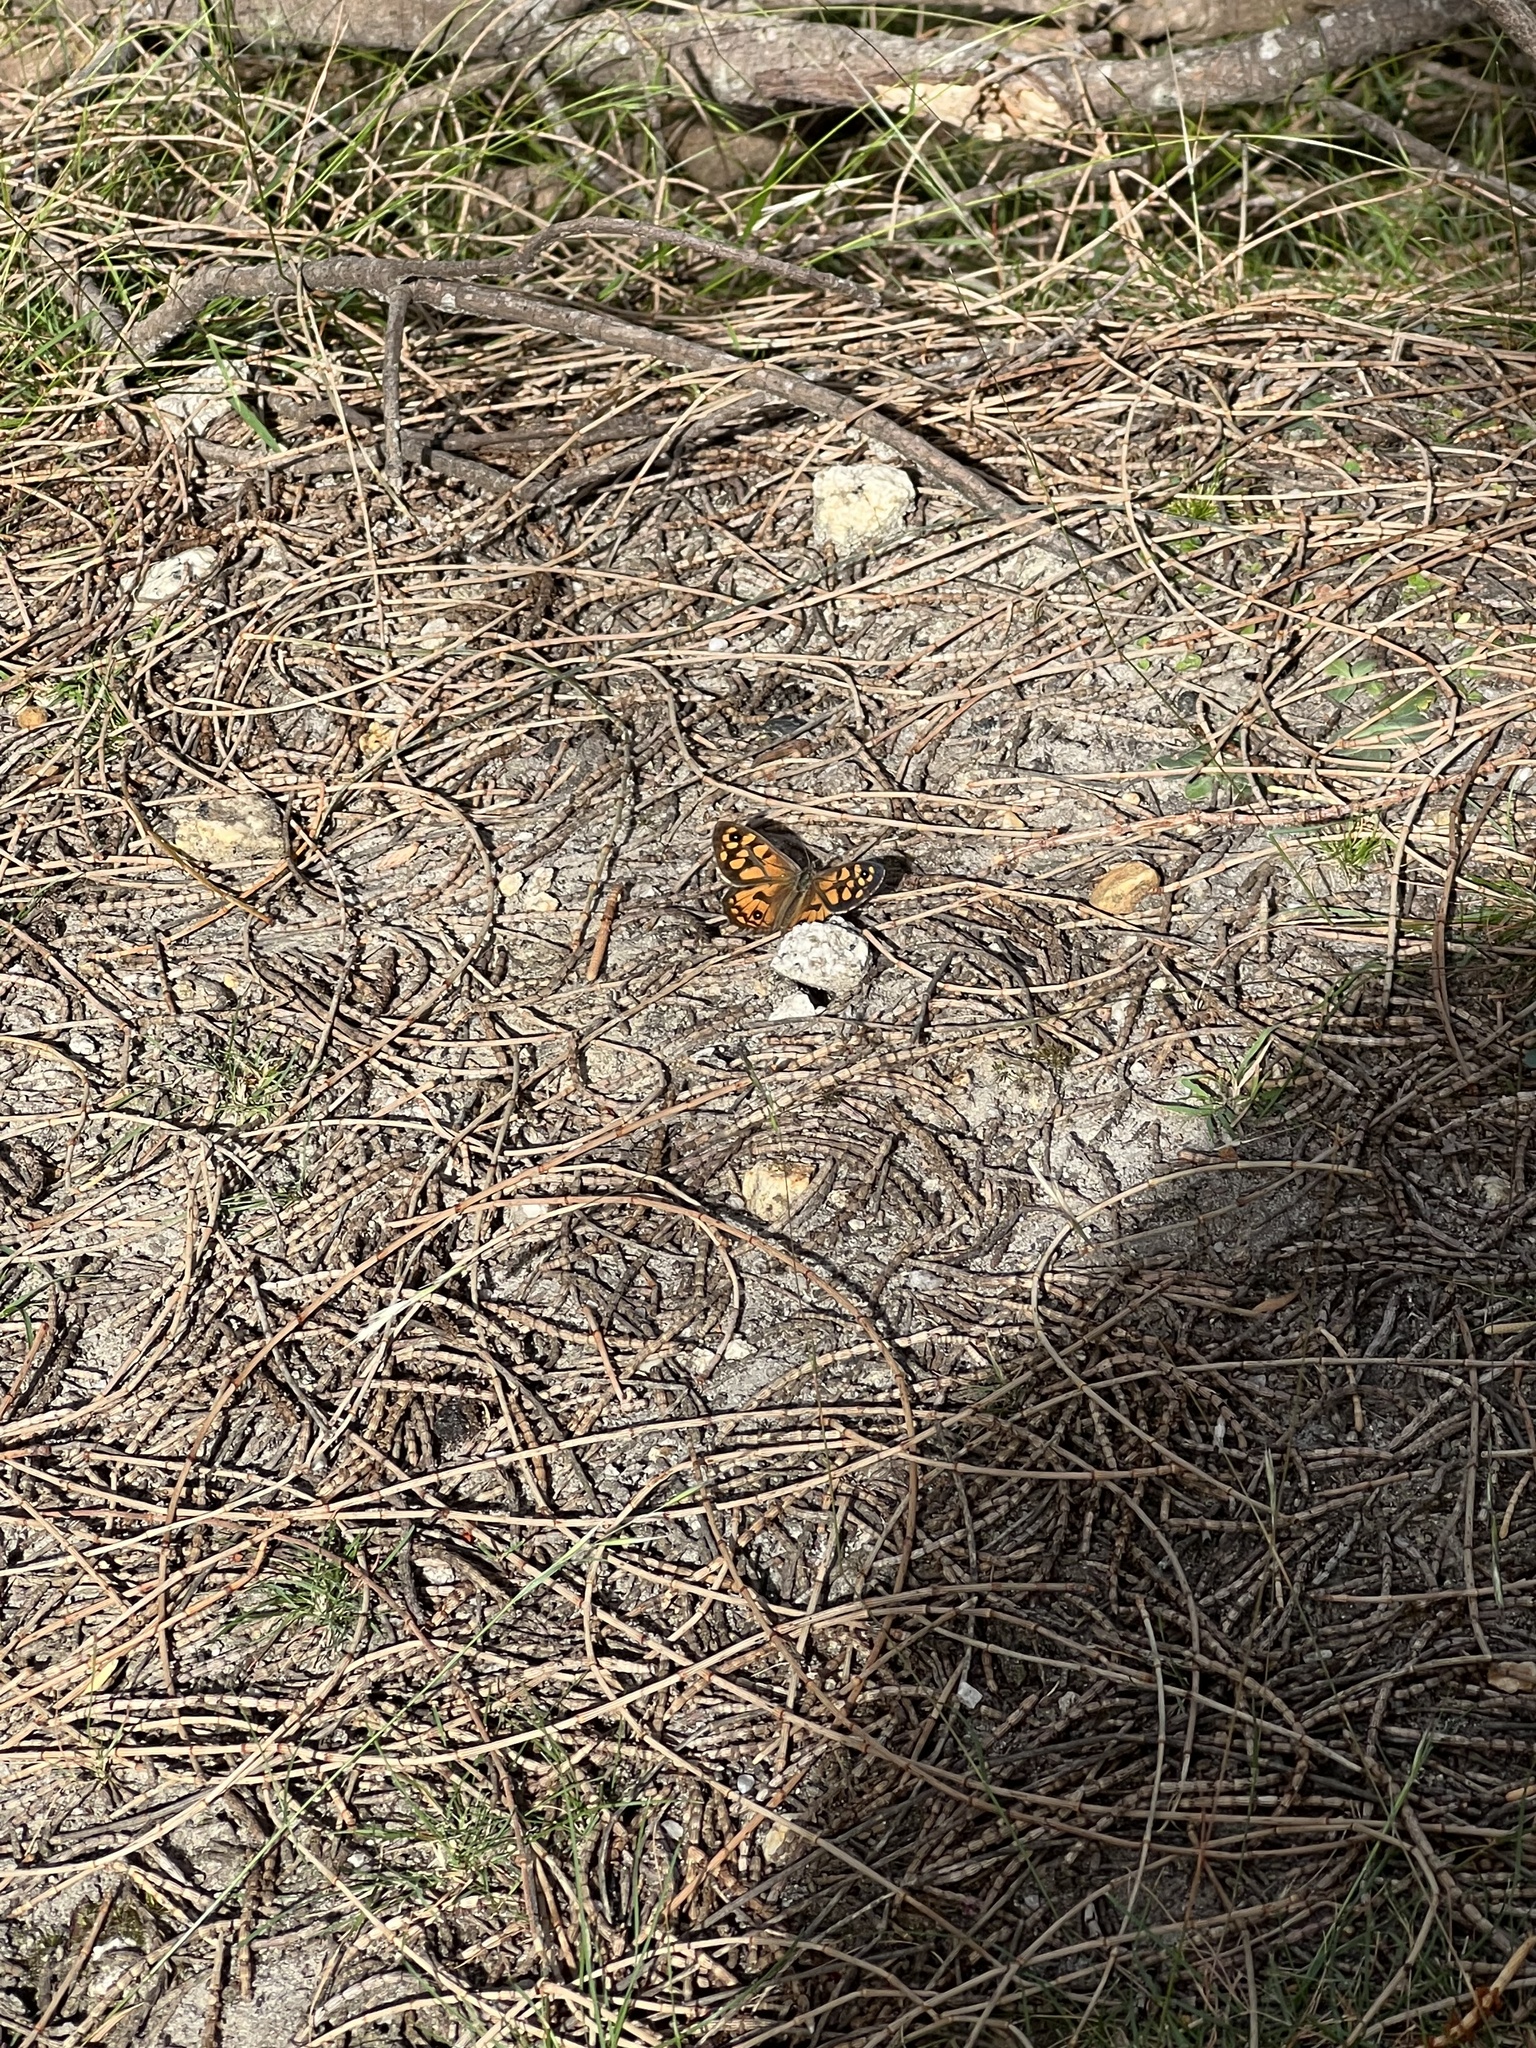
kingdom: Animalia
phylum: Arthropoda
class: Insecta
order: Lepidoptera
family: Nymphalidae
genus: Geitoneura
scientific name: Geitoneura klugii
